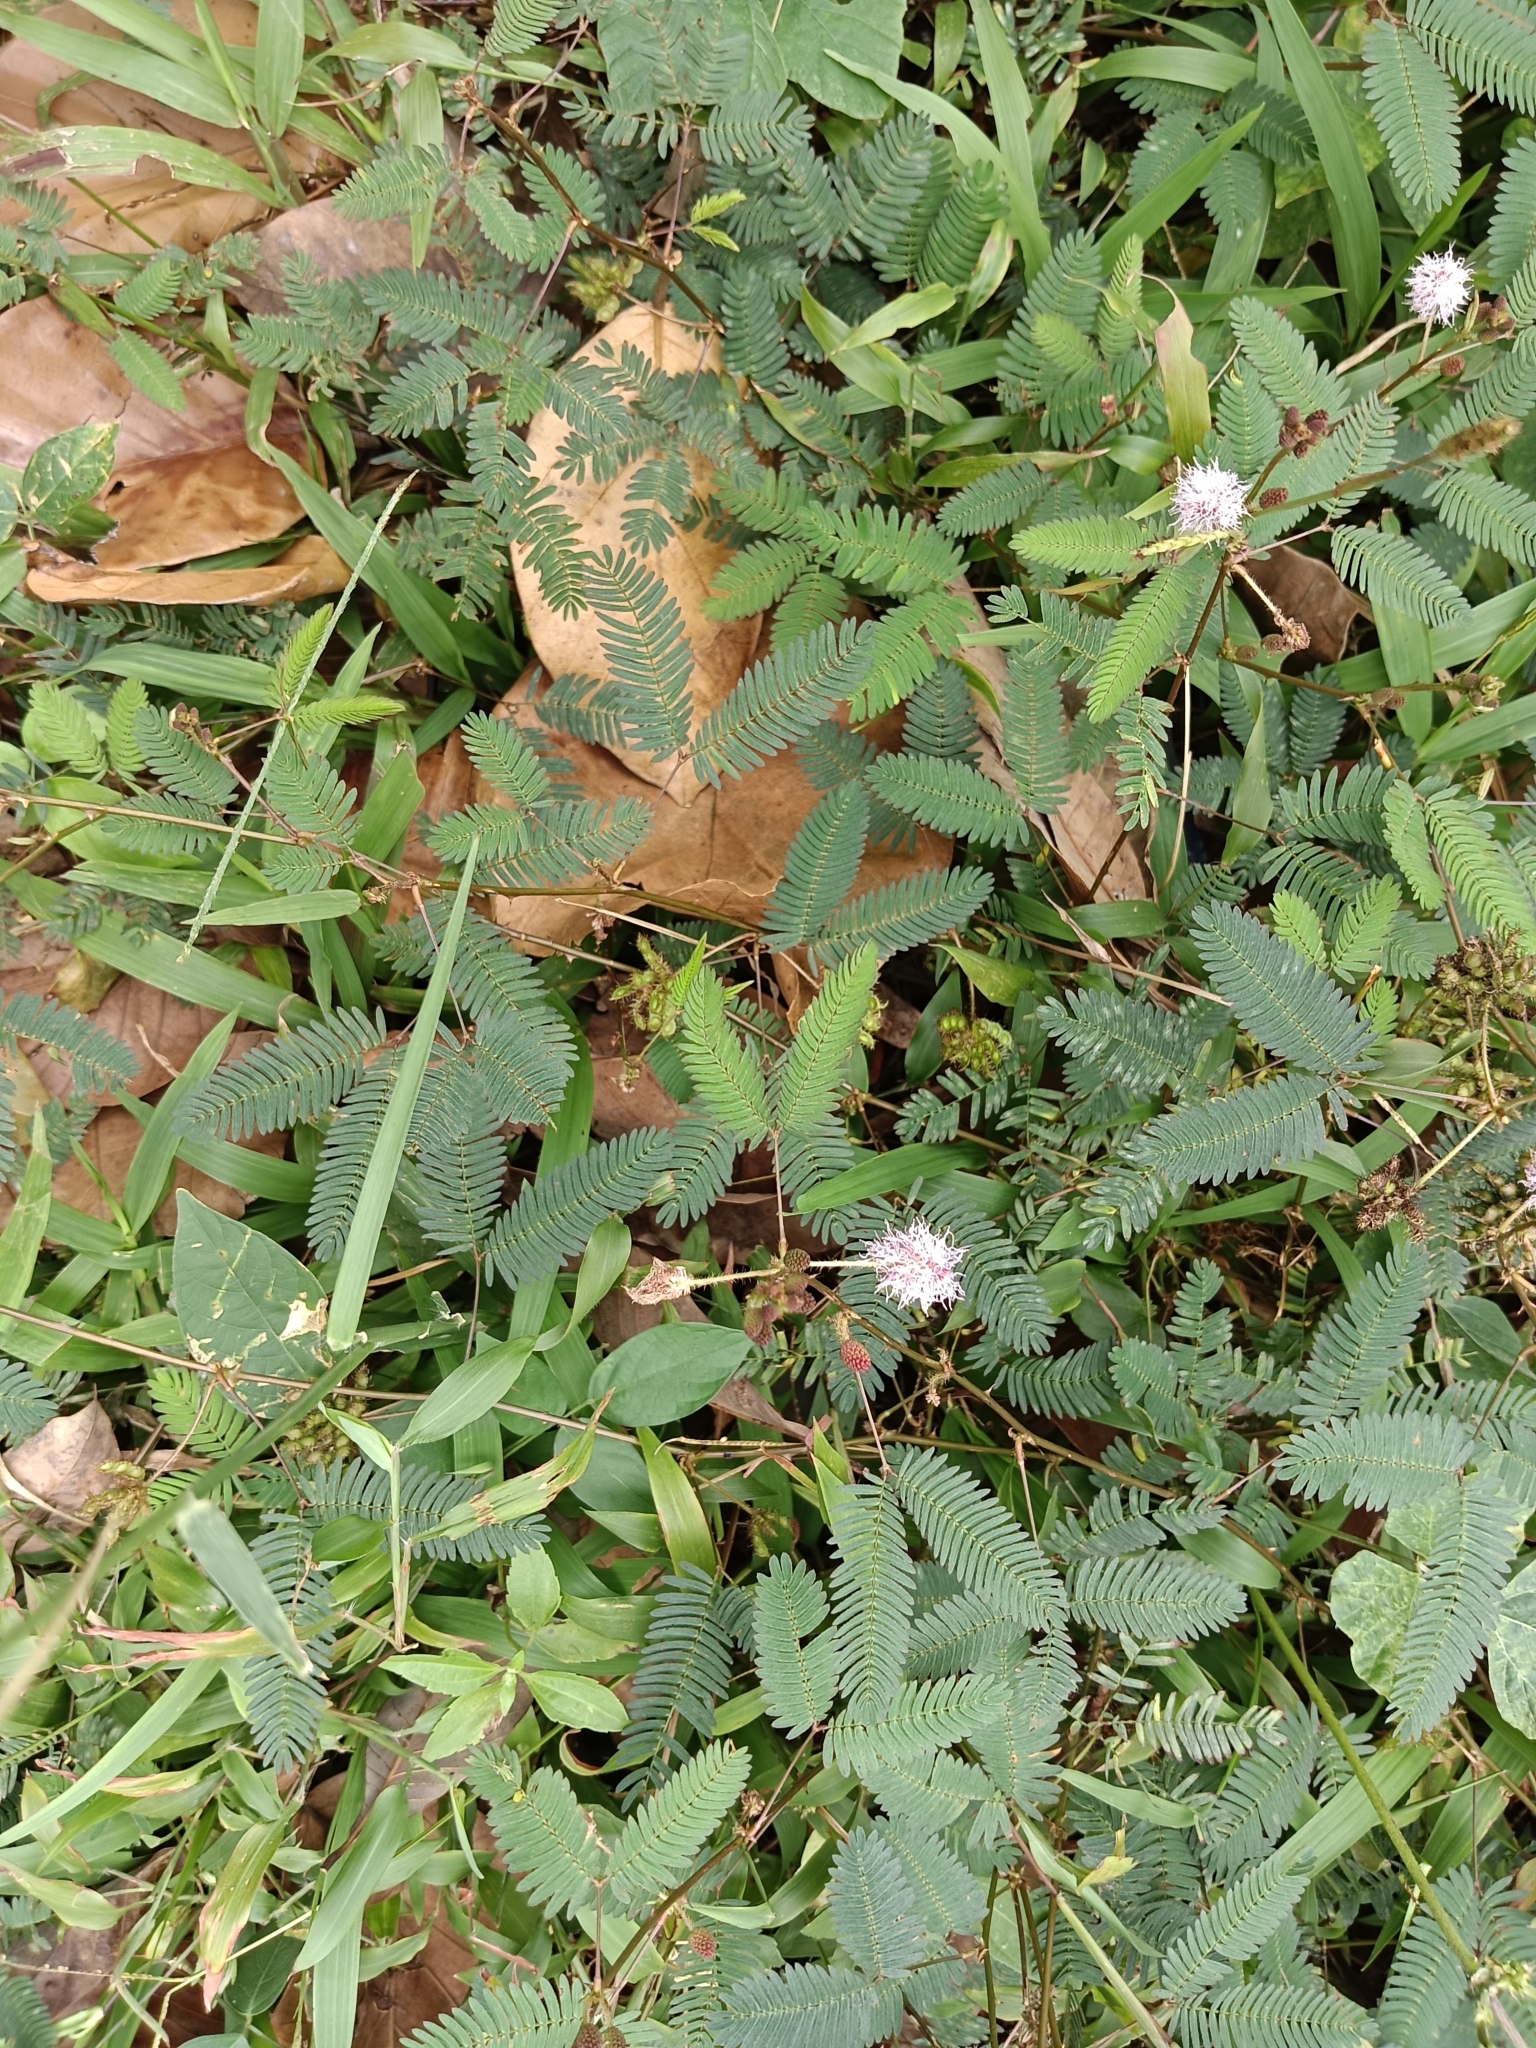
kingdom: Plantae
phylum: Tracheophyta
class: Magnoliopsida
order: Fabales
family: Fabaceae
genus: Mimosa
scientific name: Mimosa pudica
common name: Sensitive plant
